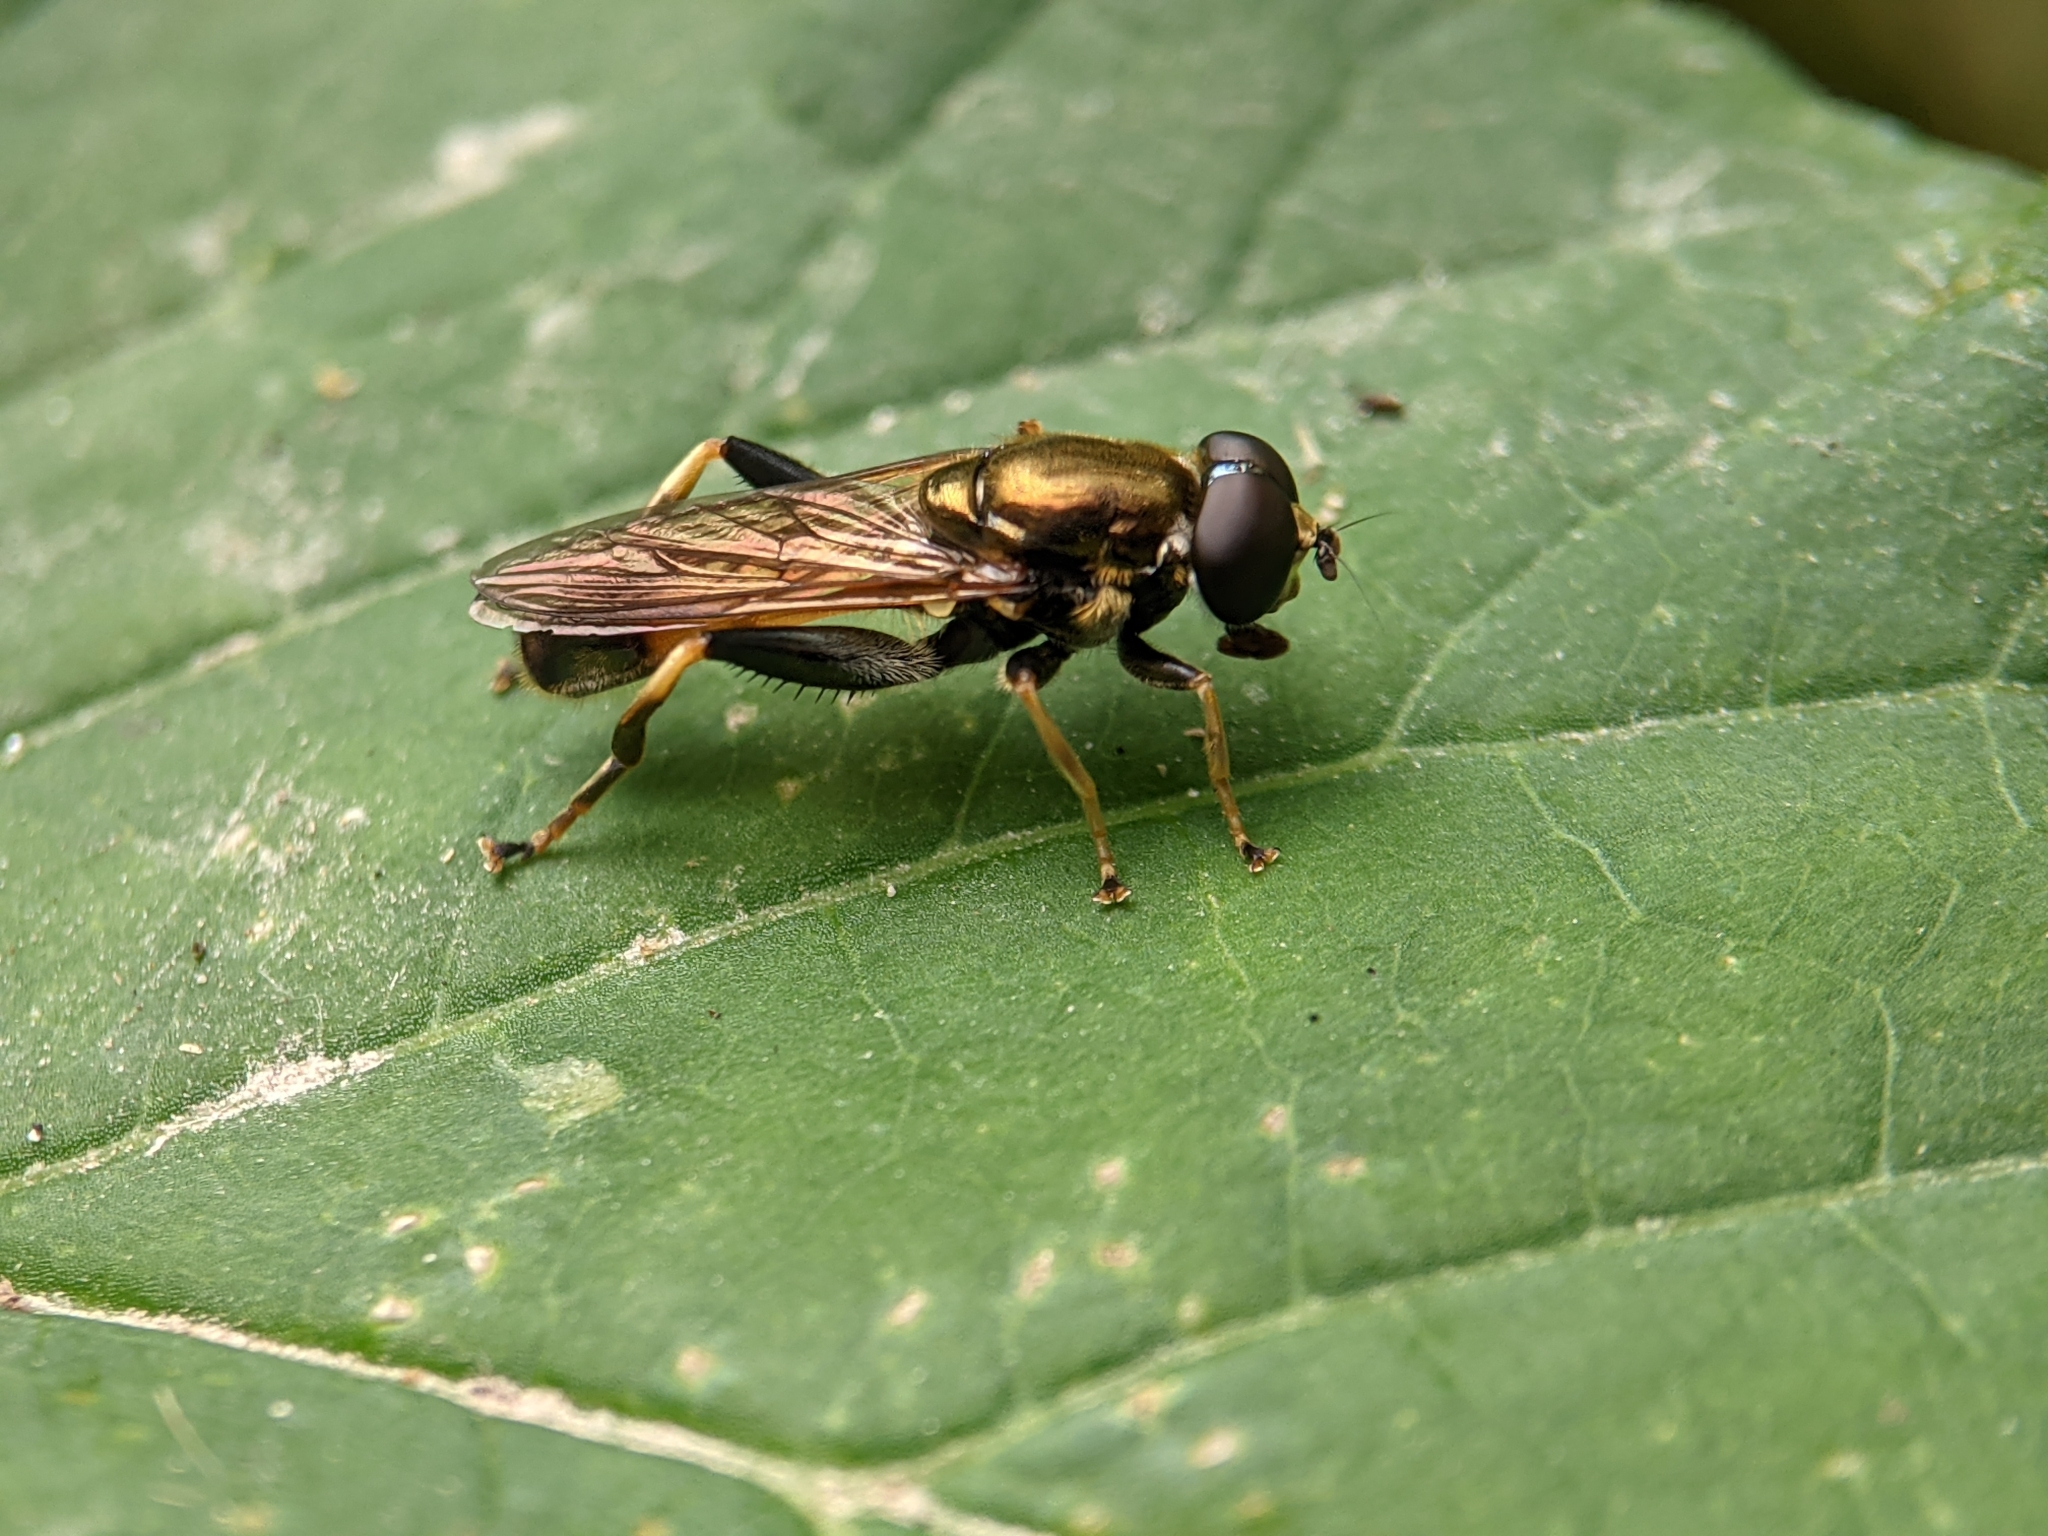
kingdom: Animalia
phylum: Arthropoda
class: Insecta
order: Diptera
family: Syrphidae
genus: Xylota
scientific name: Xylota segnis
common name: Brown-toed forest fly
